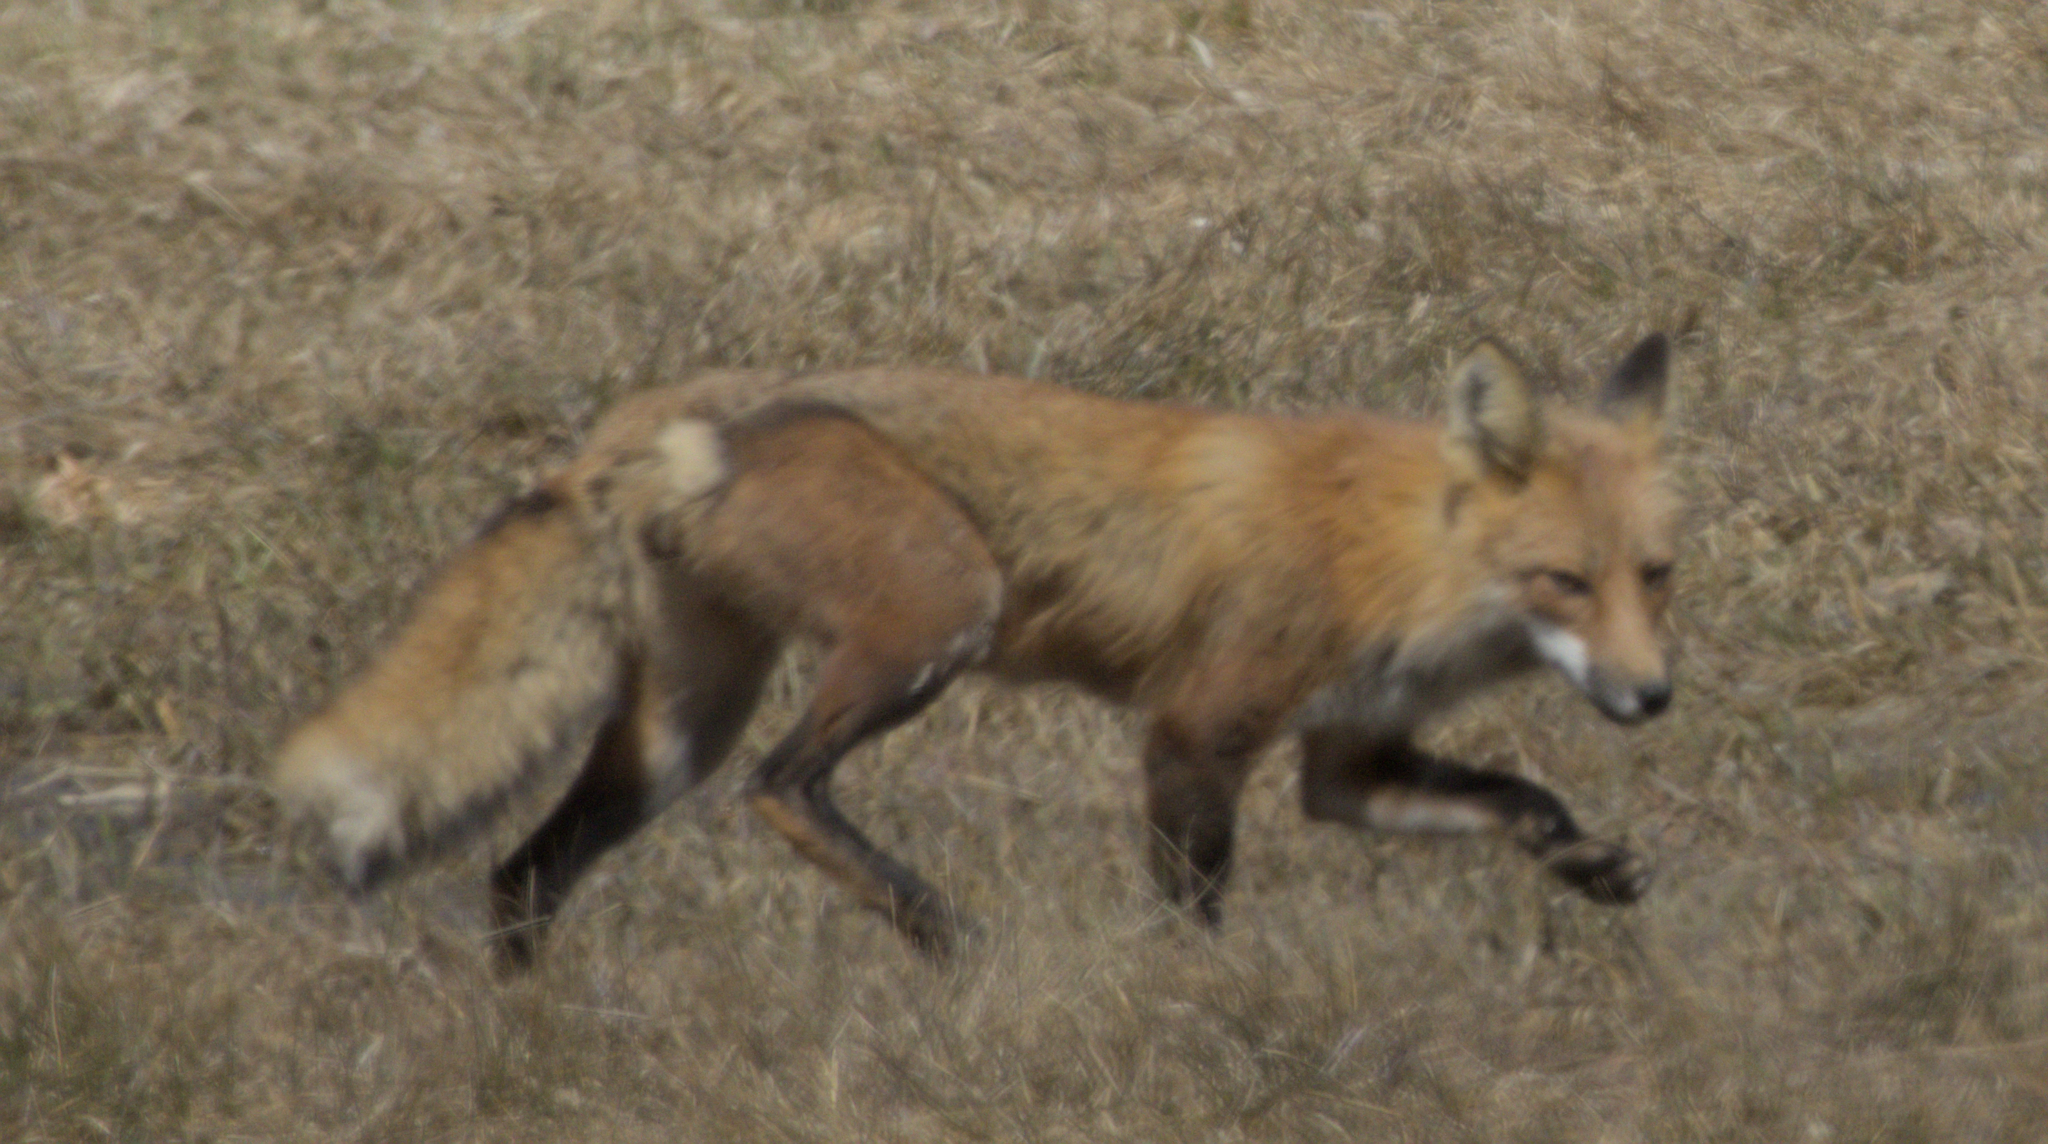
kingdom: Animalia
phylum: Chordata
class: Mammalia
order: Carnivora
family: Canidae
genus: Vulpes
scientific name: Vulpes vulpes
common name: Red fox
